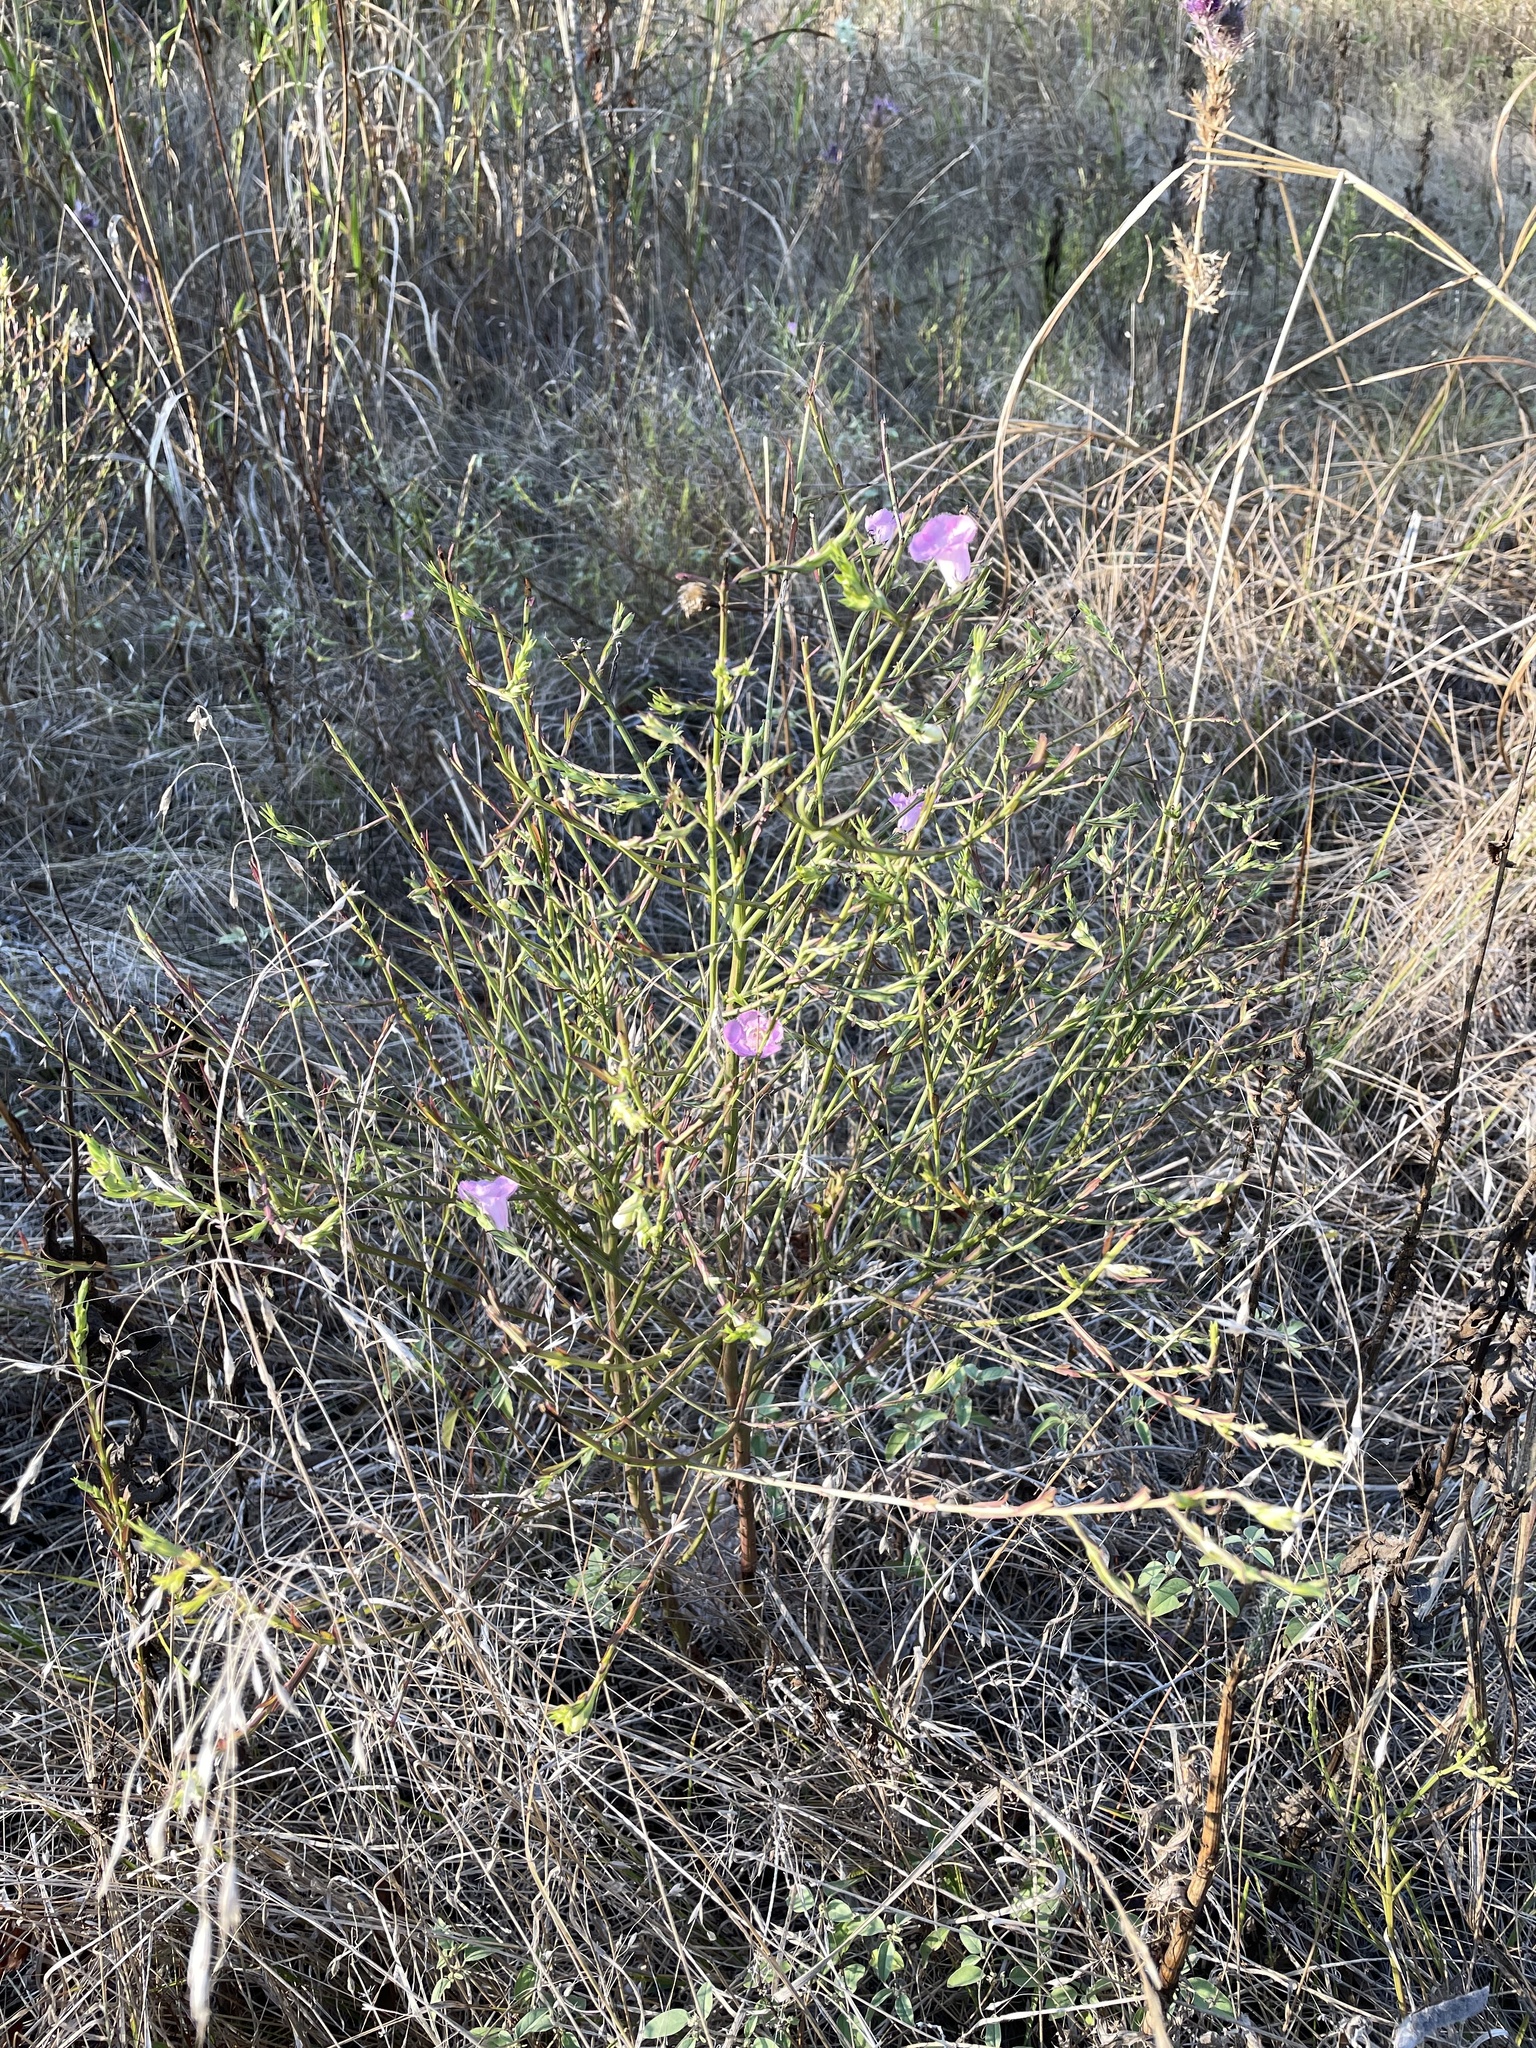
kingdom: Plantae
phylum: Tracheophyta
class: Magnoliopsida
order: Lamiales
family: Orobanchaceae
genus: Agalinis
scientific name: Agalinis heterophylla
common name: Prairie agalinis
